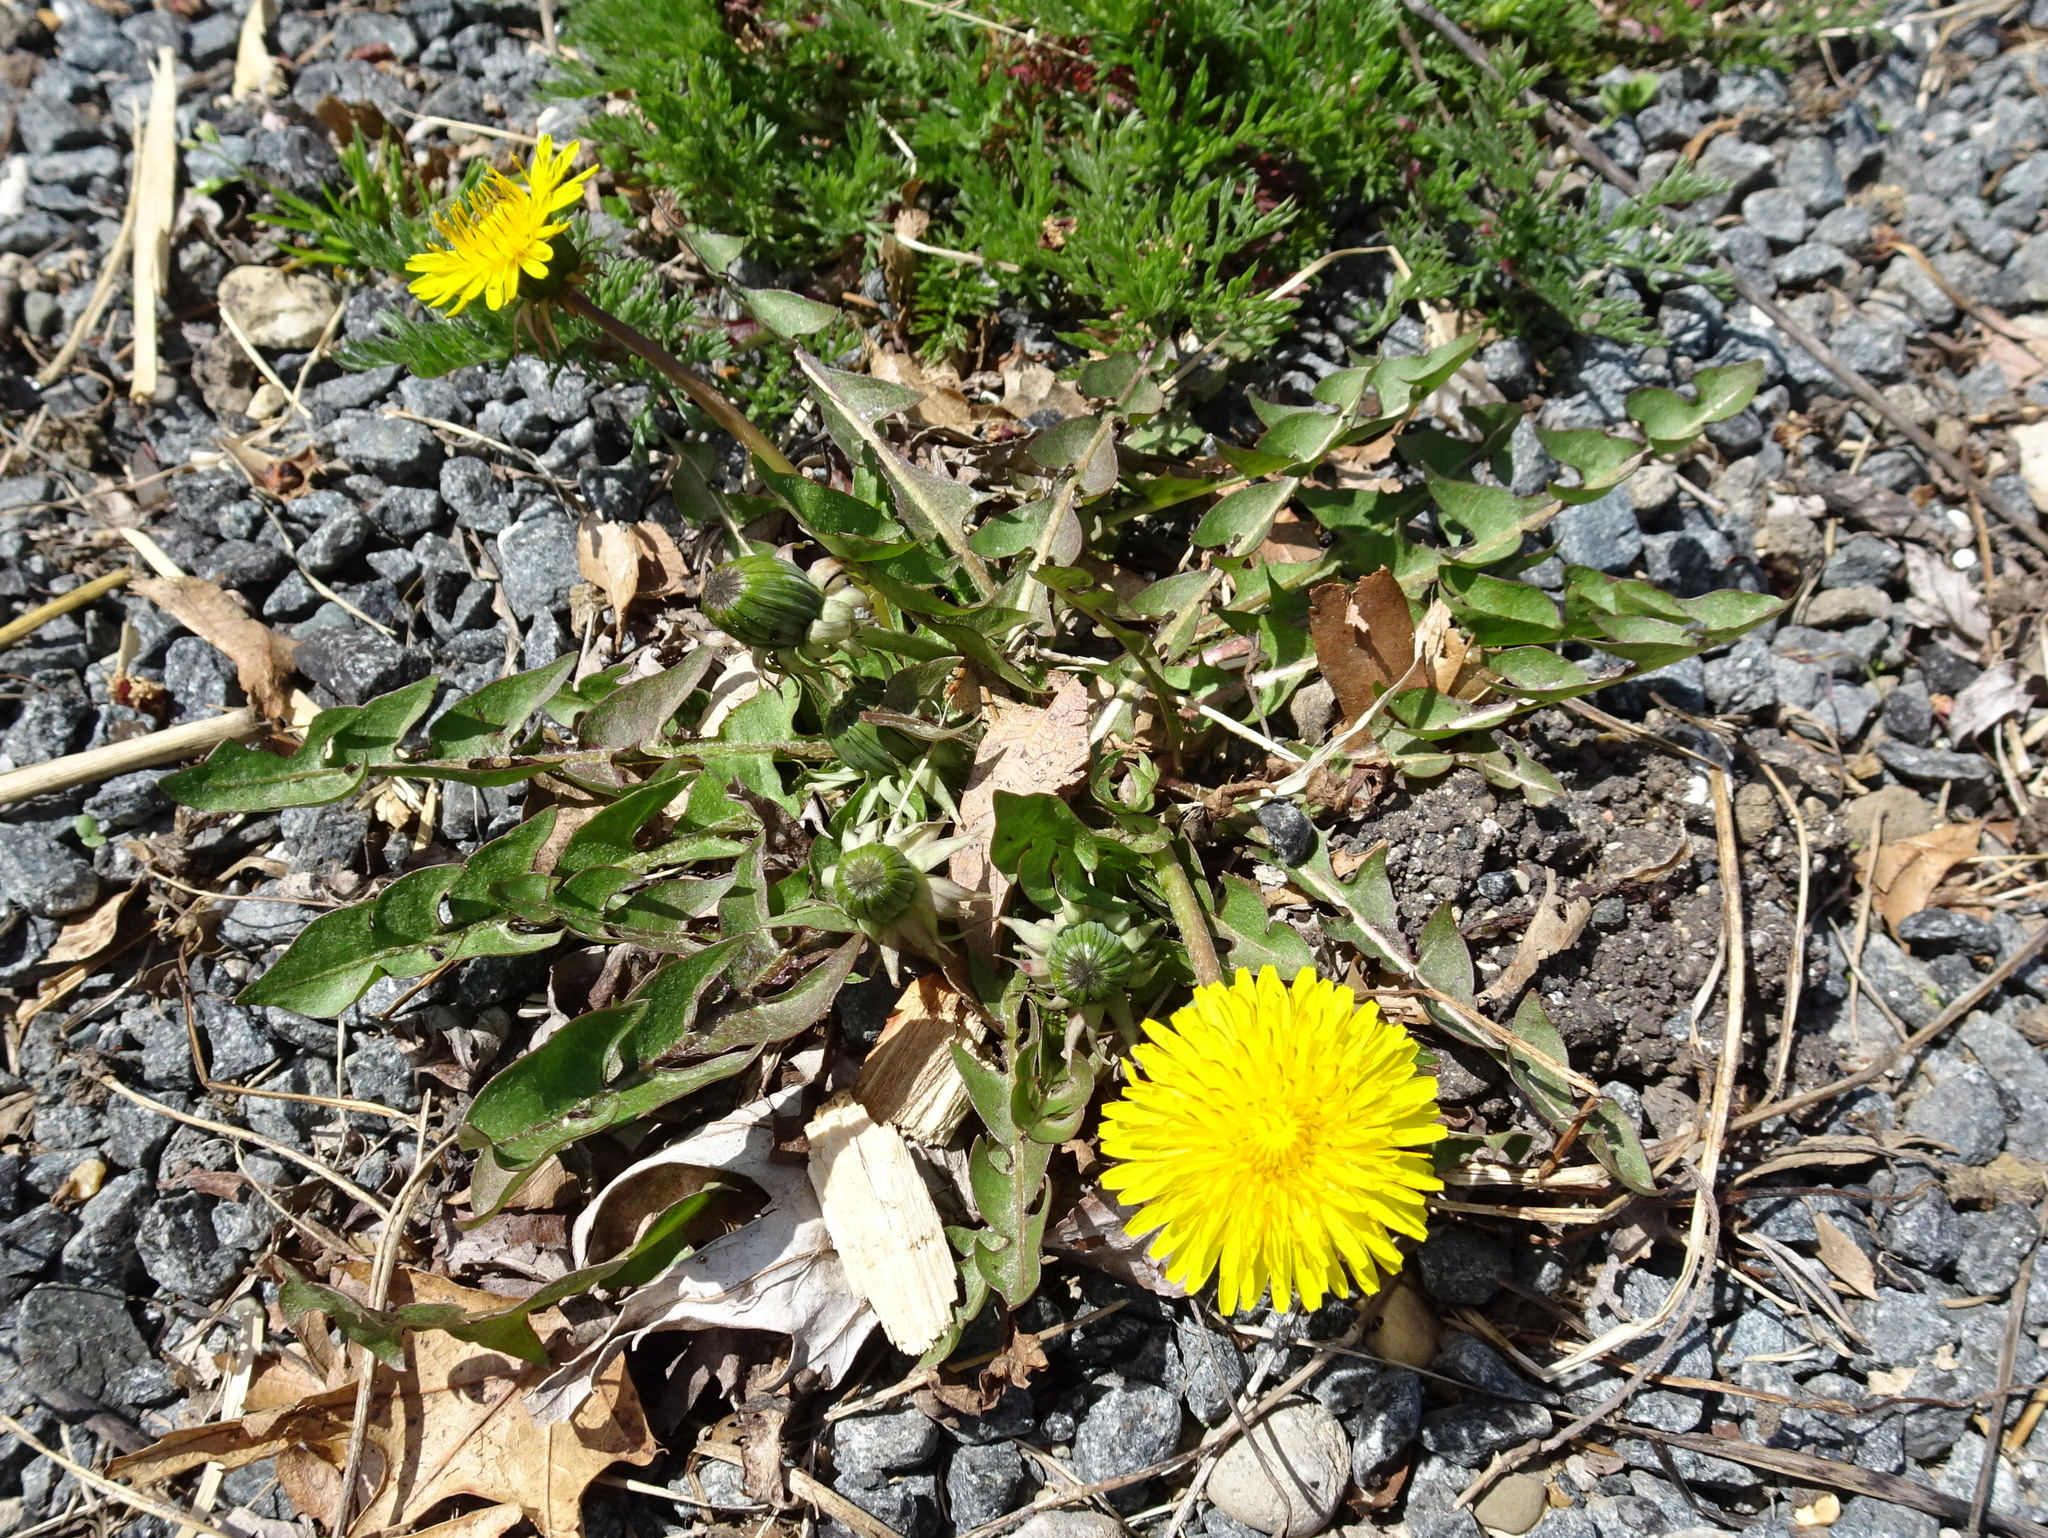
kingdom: Plantae
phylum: Tracheophyta
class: Magnoliopsida
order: Asterales
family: Asteraceae
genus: Taraxacum
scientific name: Taraxacum officinale
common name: Common dandelion
